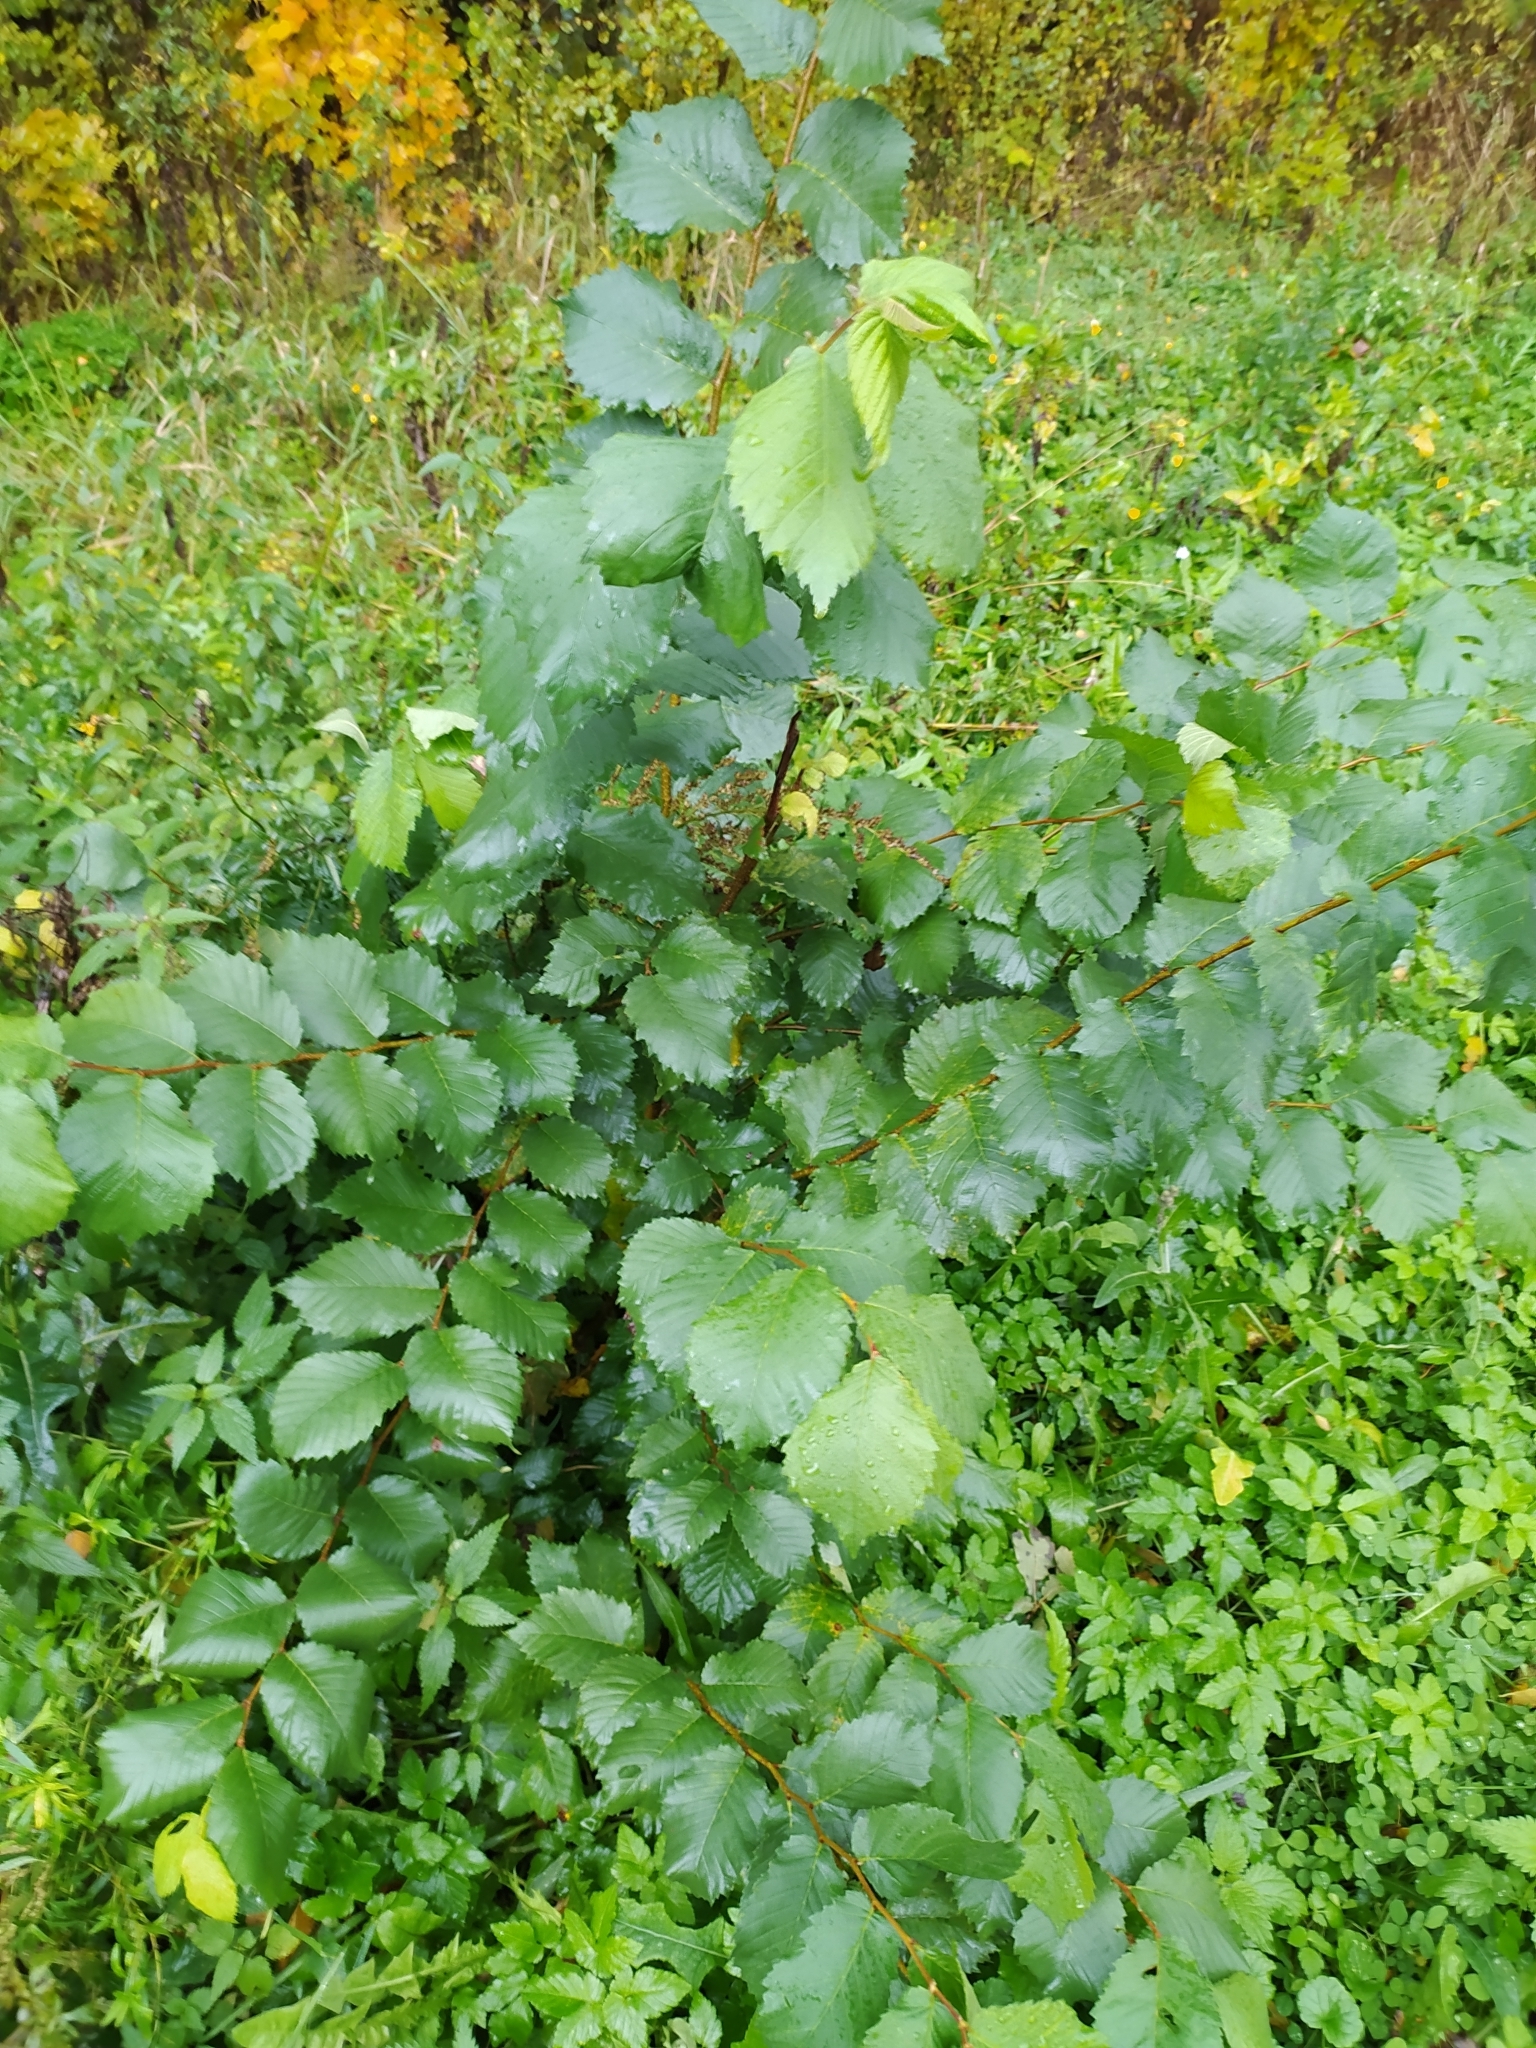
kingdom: Plantae
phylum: Tracheophyta
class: Magnoliopsida
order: Rosales
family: Ulmaceae
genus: Ulmus
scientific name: Ulmus laevis
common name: European white-elm
